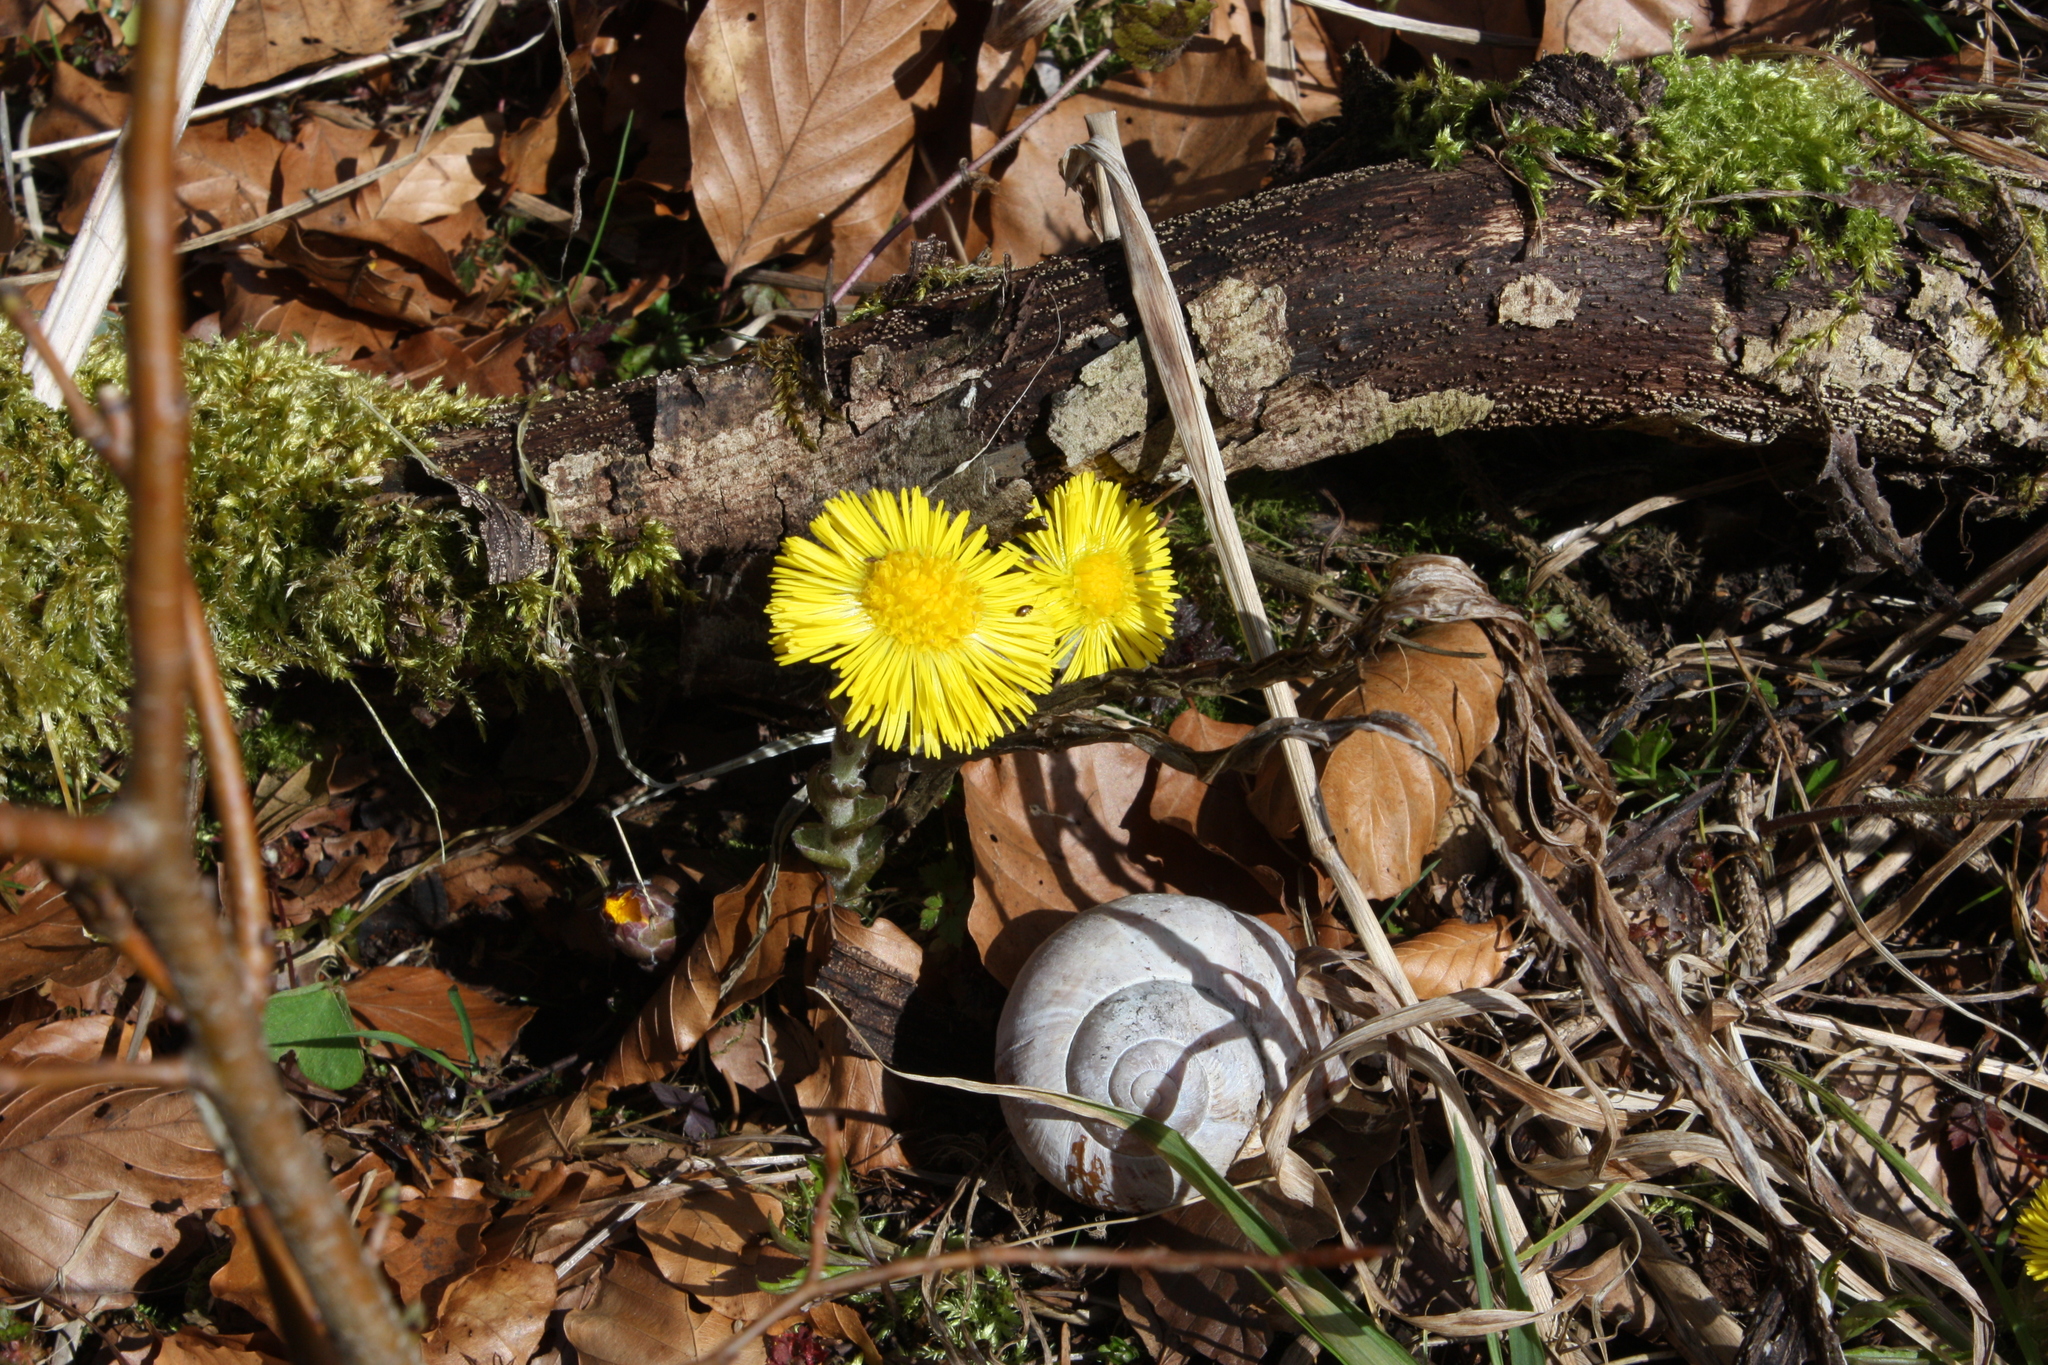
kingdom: Plantae
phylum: Tracheophyta
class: Magnoliopsida
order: Asterales
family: Asteraceae
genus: Tussilago
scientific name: Tussilago farfara
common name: Coltsfoot
